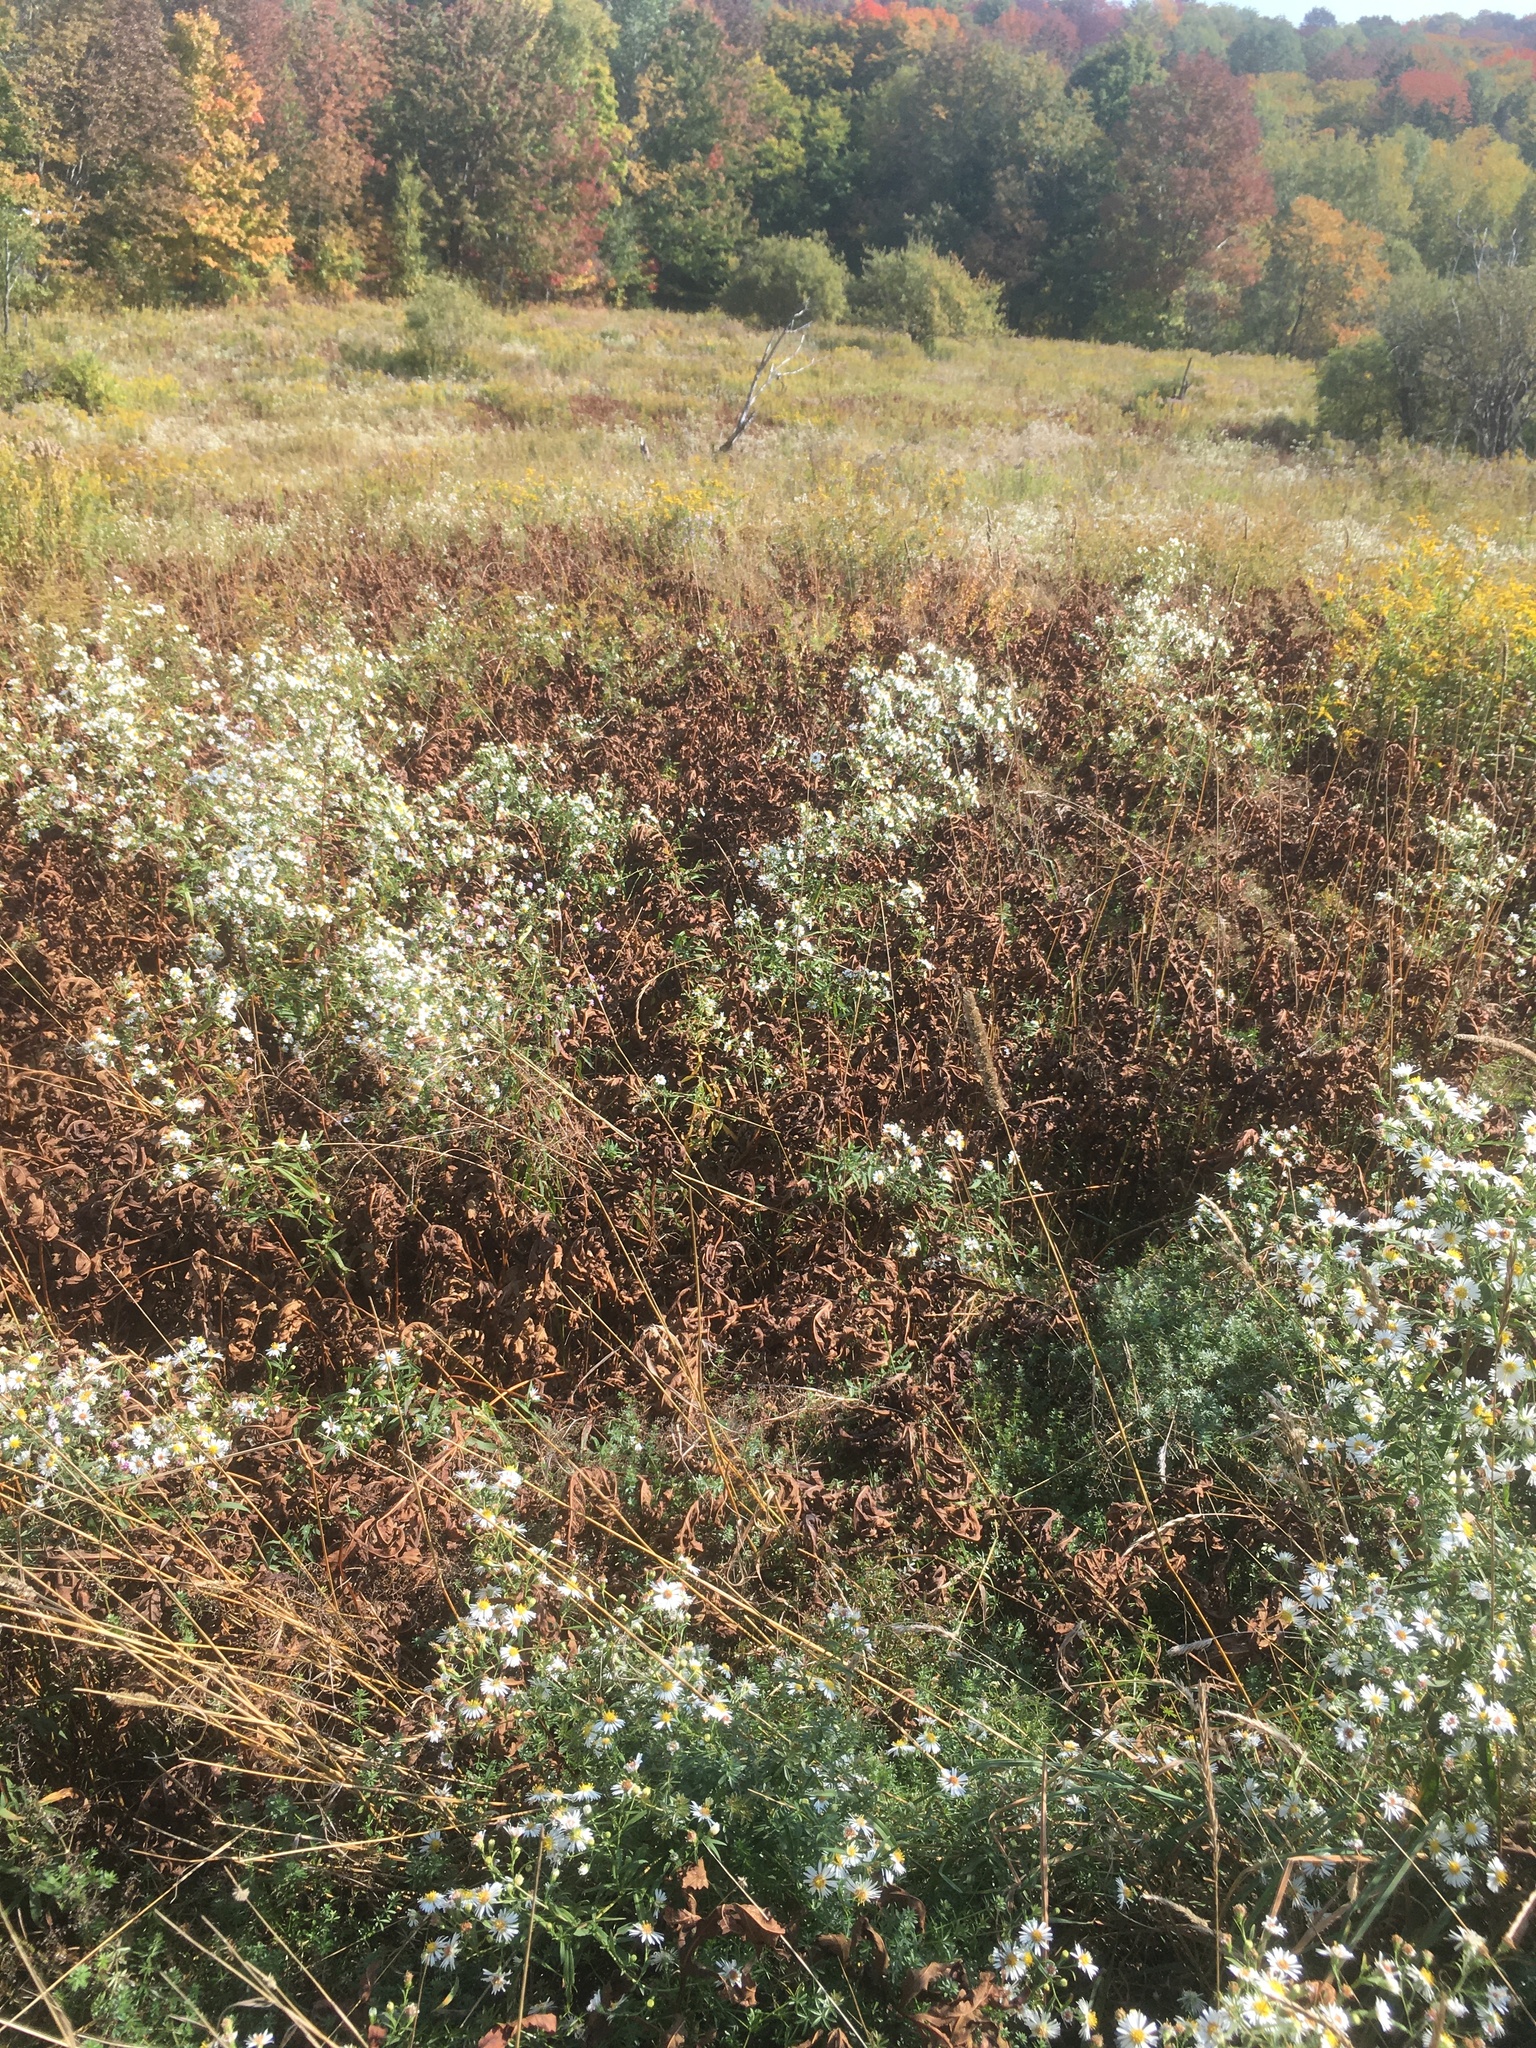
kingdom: Plantae
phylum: Tracheophyta
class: Polypodiopsida
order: Polypodiales
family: Onocleaceae
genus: Onoclea
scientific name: Onoclea sensibilis
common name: Sensitive fern
